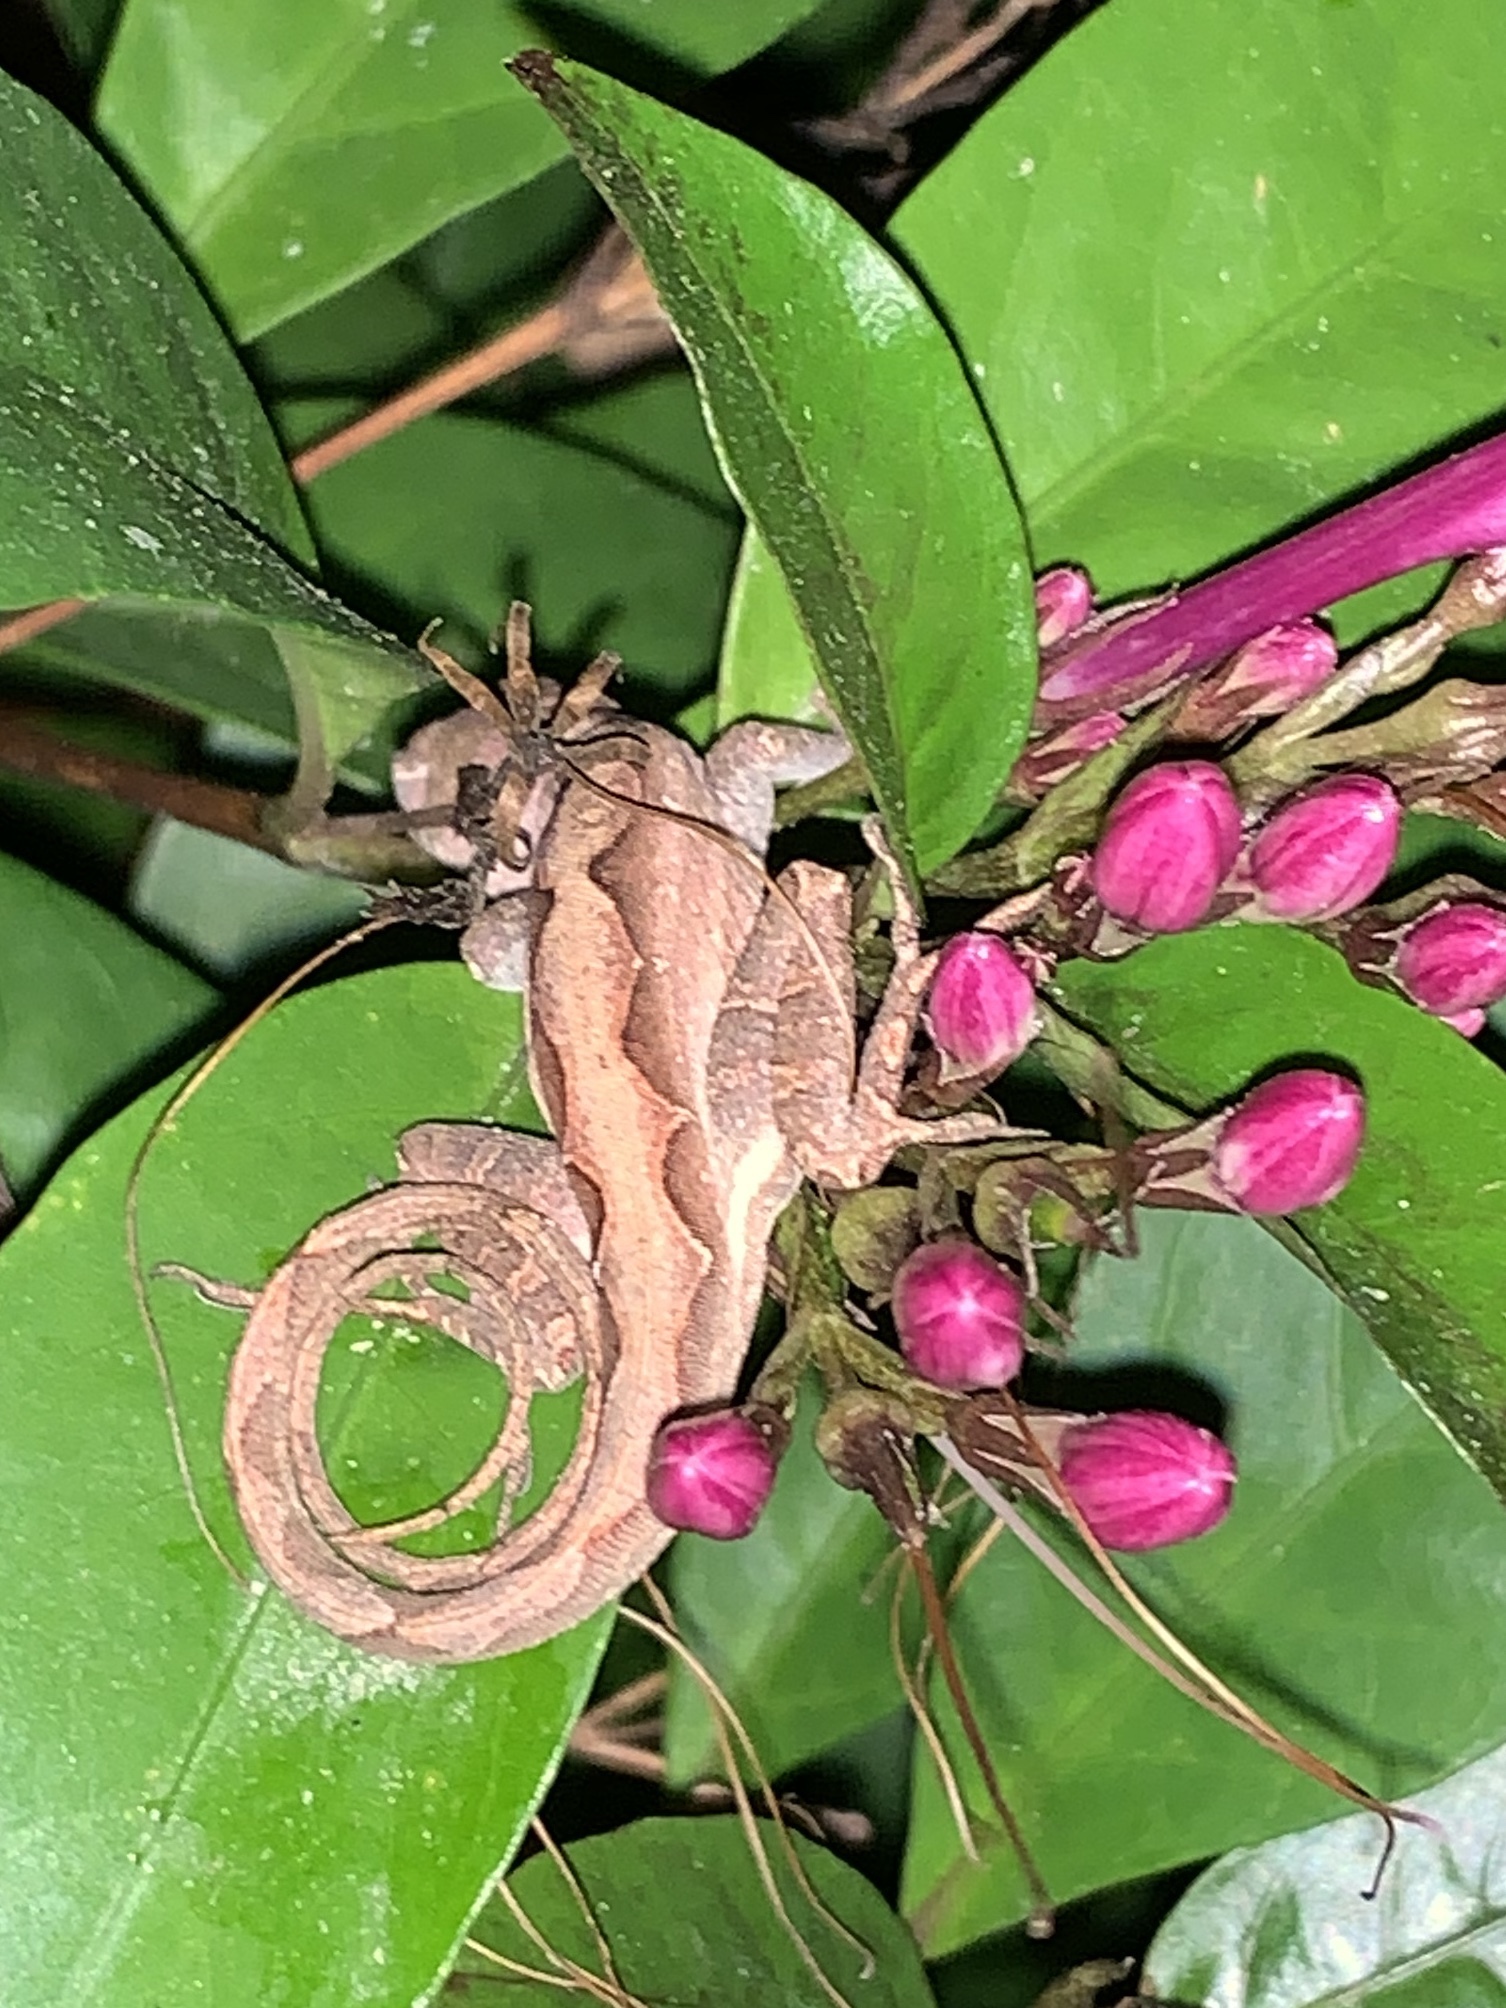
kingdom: Animalia
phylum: Chordata
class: Squamata
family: Dactyloidae
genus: Anolis
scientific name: Anolis sagrei
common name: Brown anole
